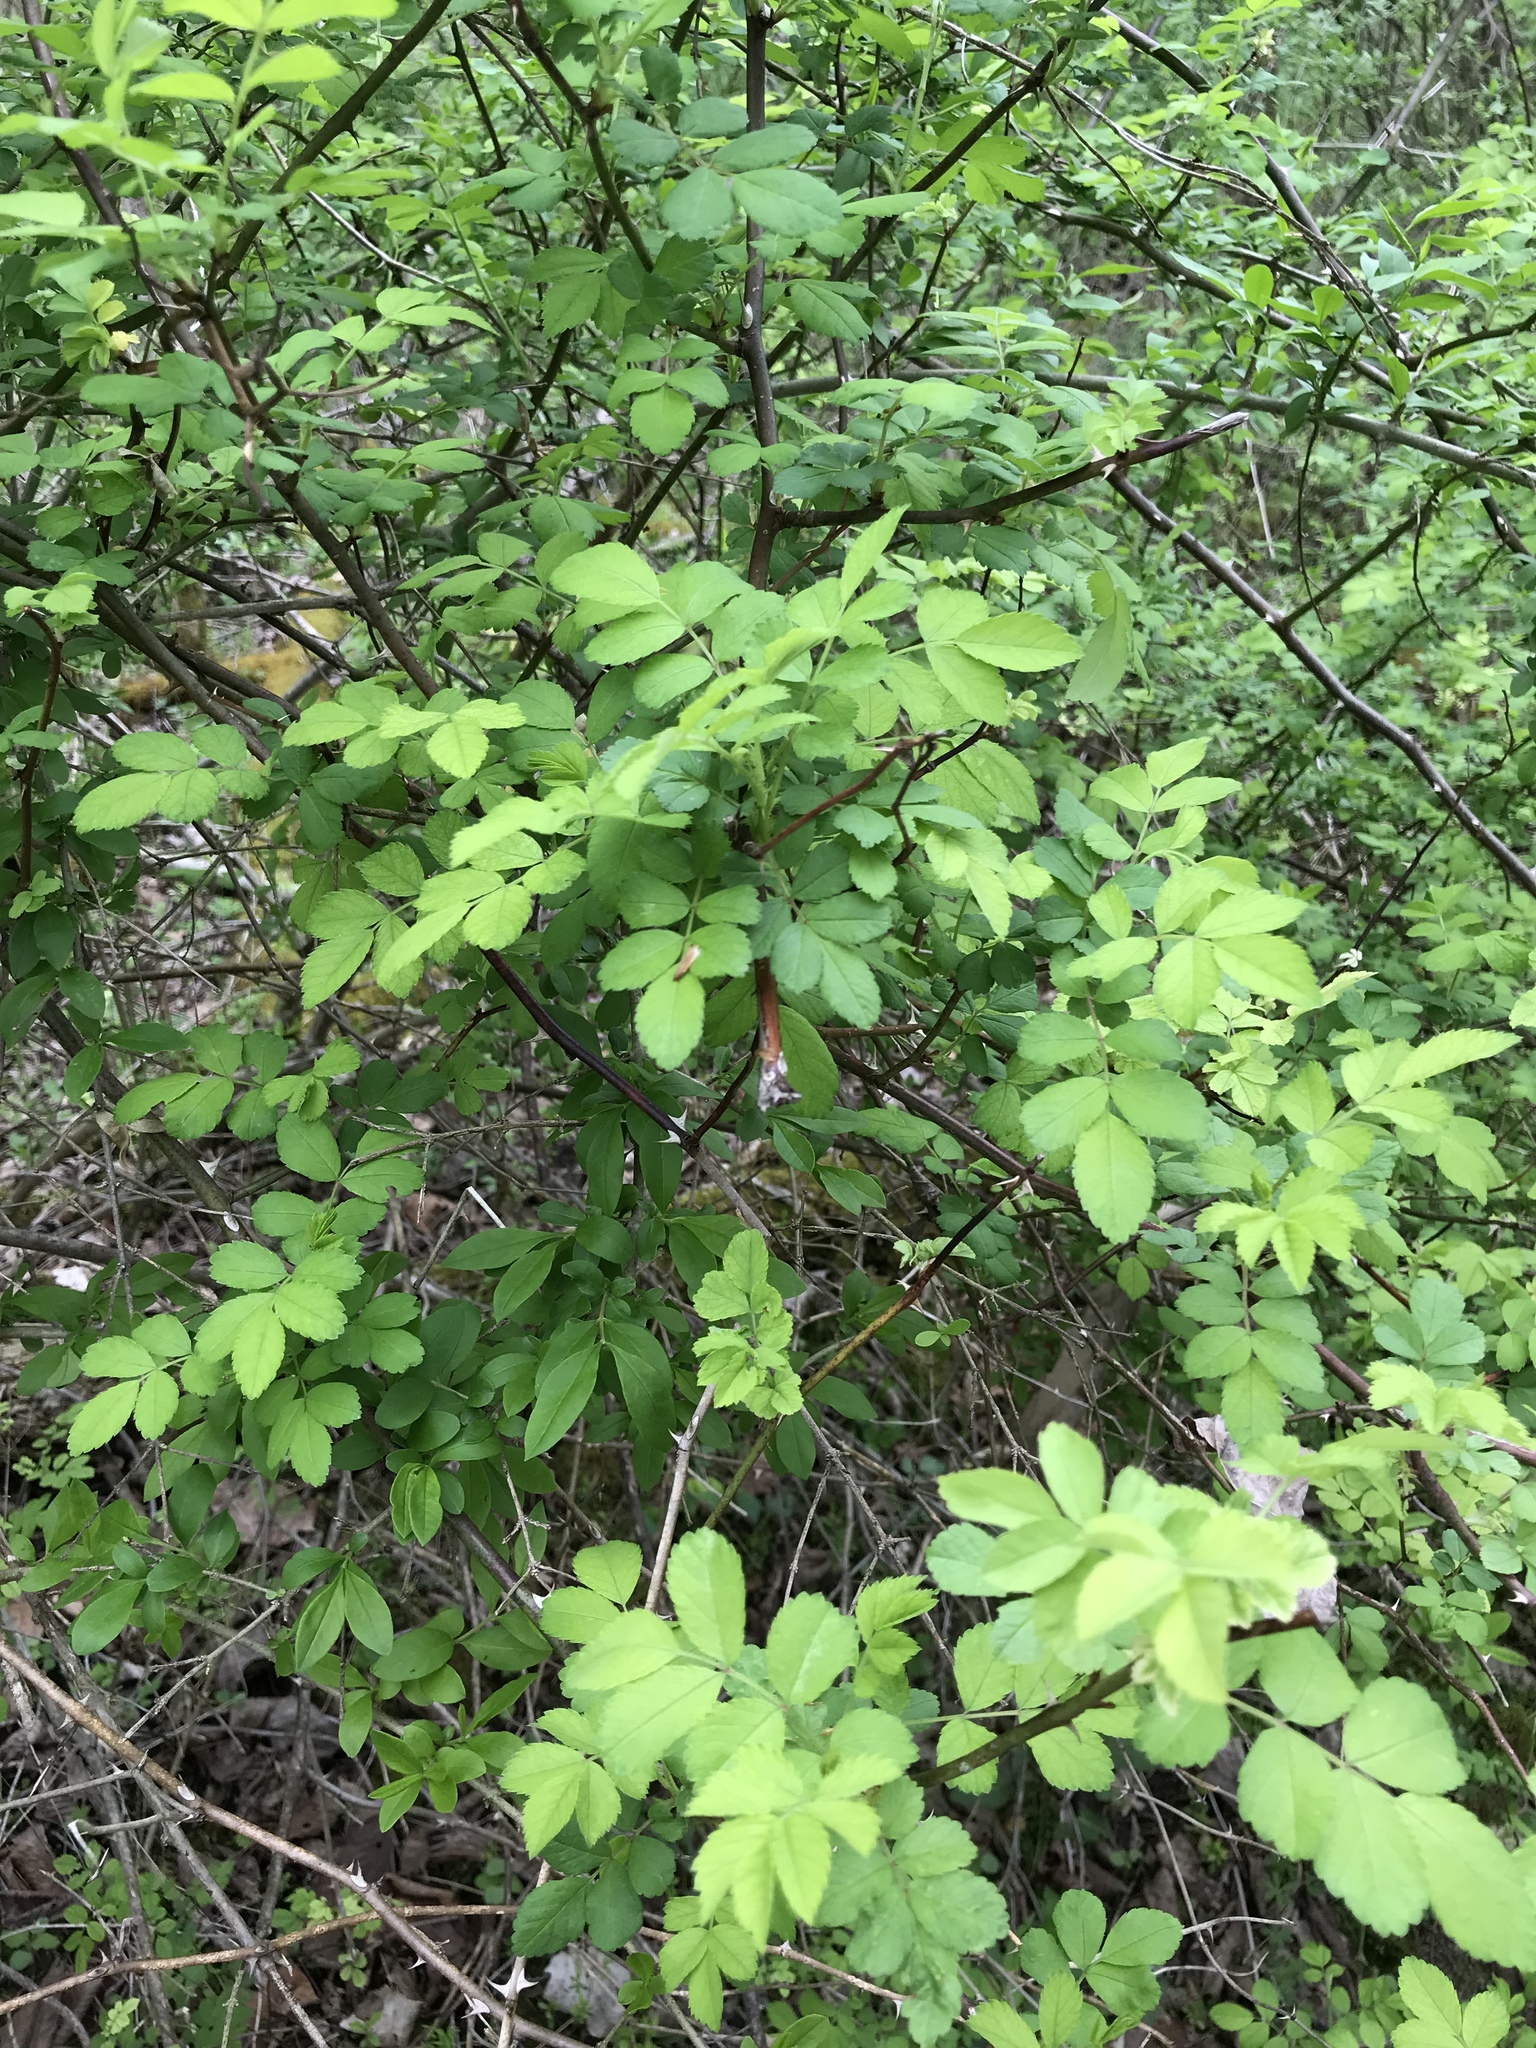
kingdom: Plantae
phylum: Tracheophyta
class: Magnoliopsida
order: Rosales
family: Rosaceae
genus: Rosa
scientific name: Rosa multiflora
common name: Multiflora rose
